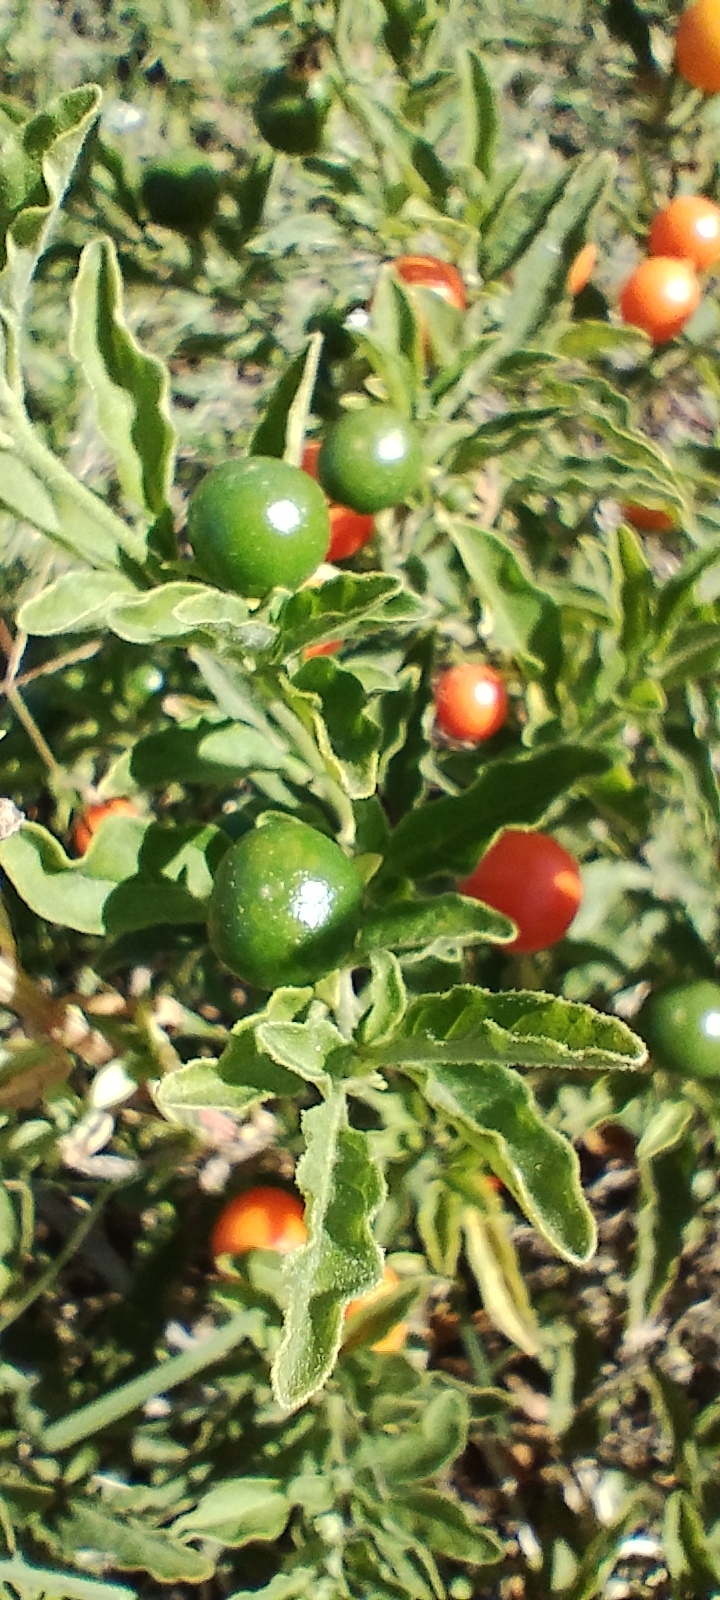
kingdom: Plantae
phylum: Tracheophyta
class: Magnoliopsida
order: Solanales
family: Solanaceae
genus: Solanum
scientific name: Solanum pseudocapsicum
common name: Jerusalem cherry
